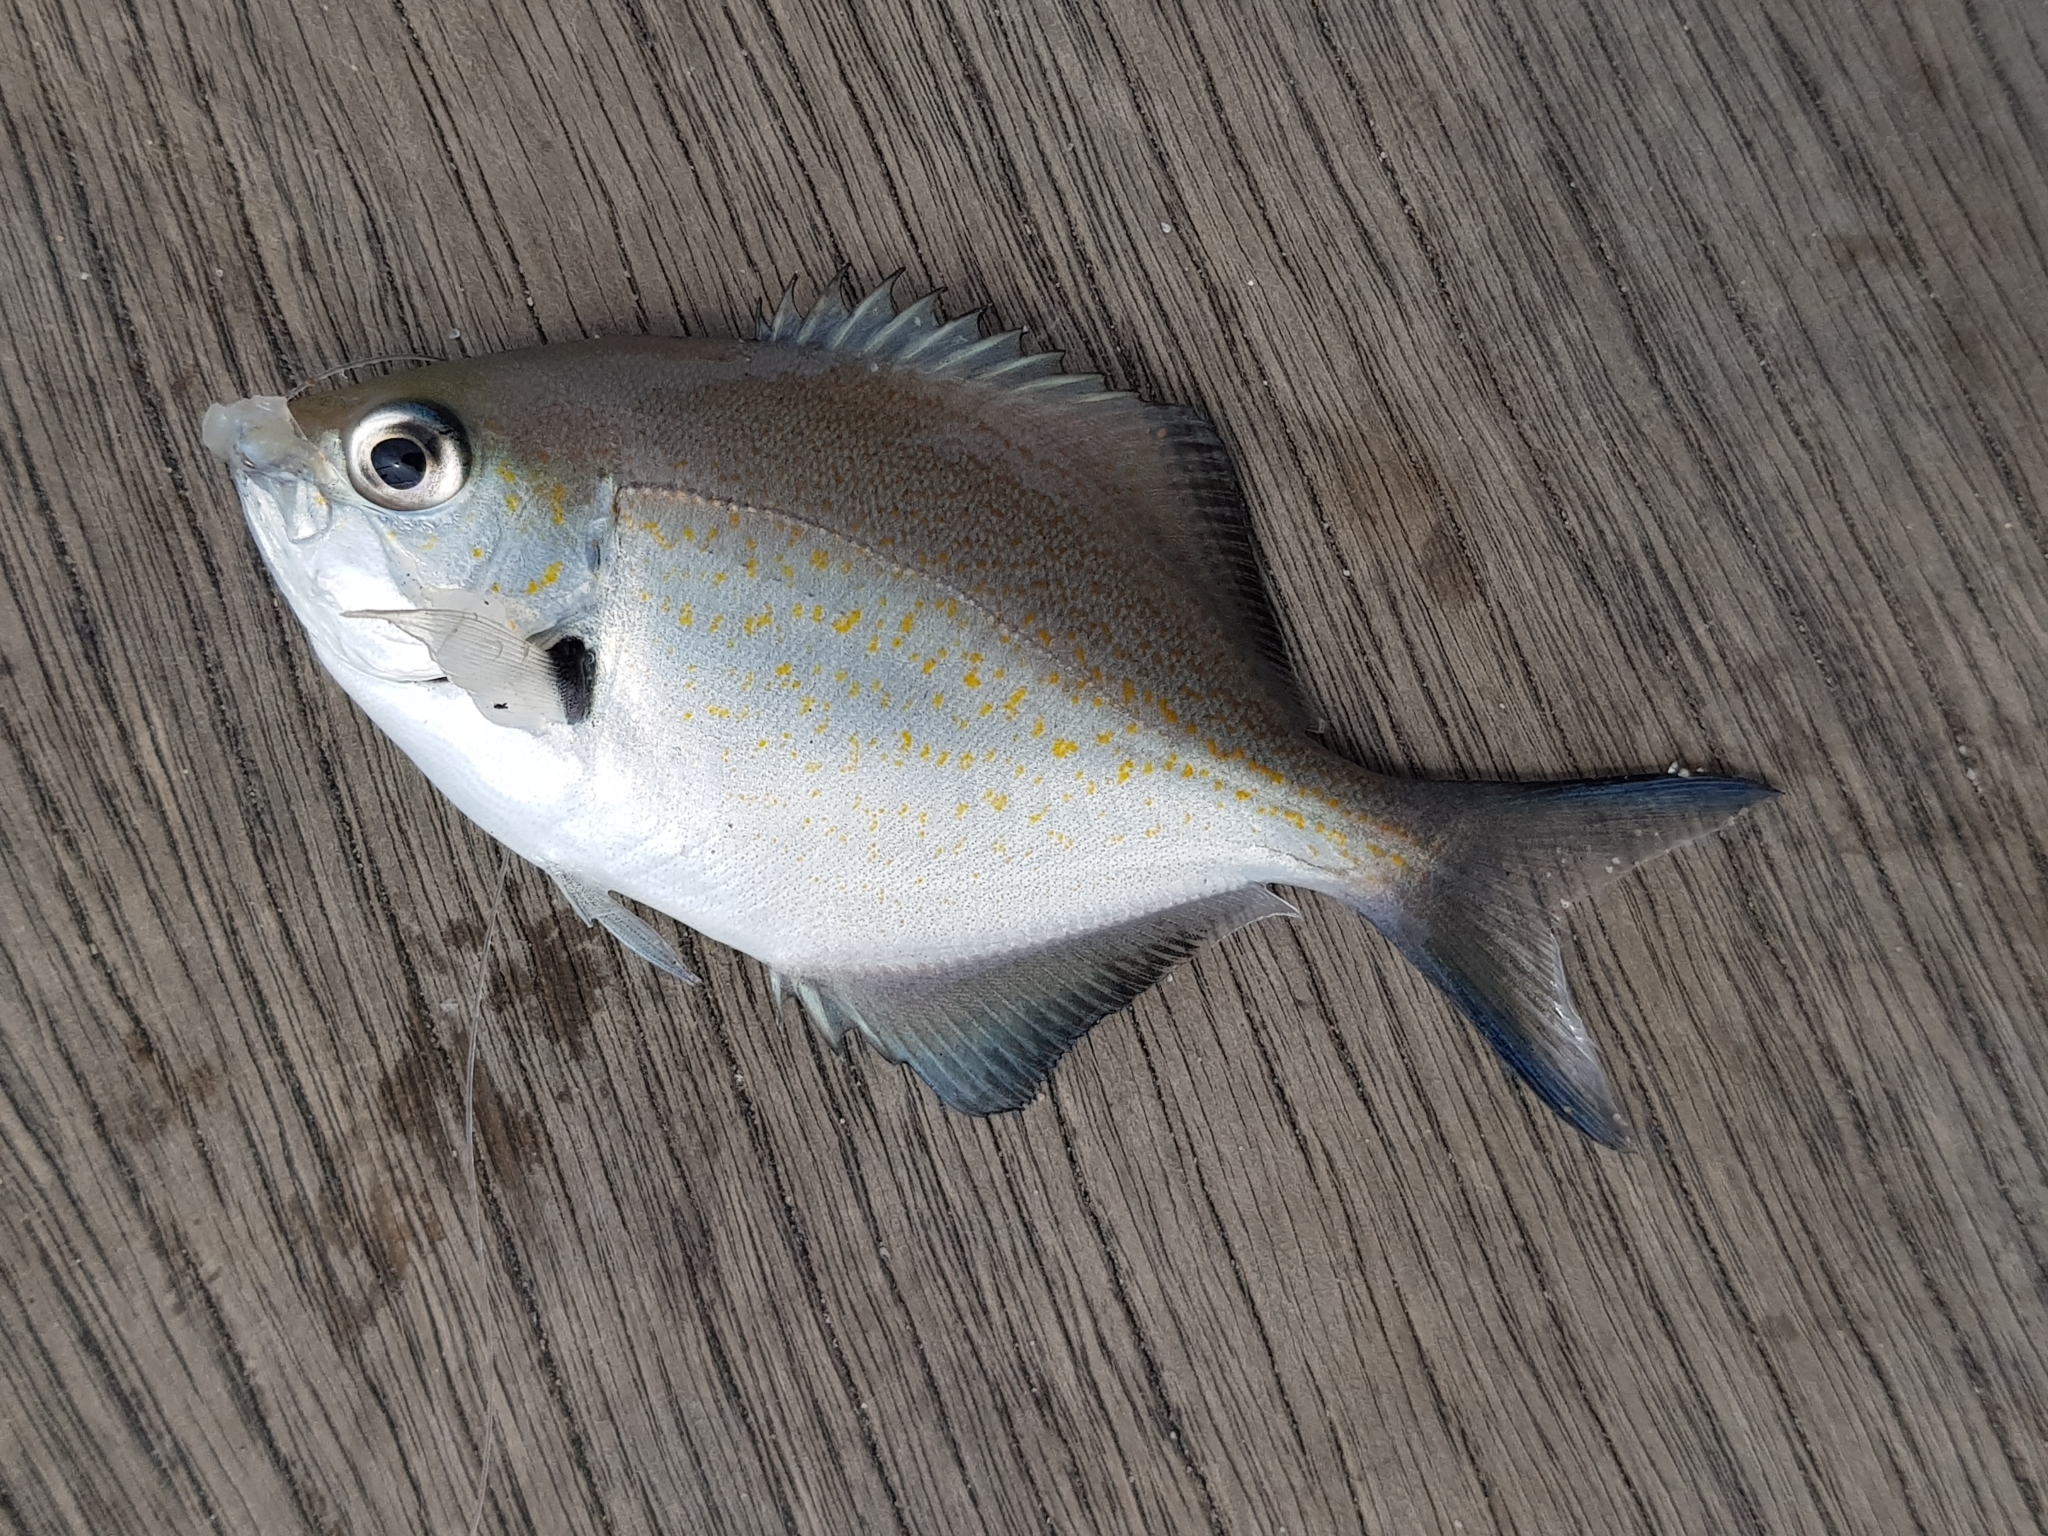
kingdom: Animalia
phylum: Chordata
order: Perciformes
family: Kyphosidae
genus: Scorpis
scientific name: Scorpis lineolata
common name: Sweep
